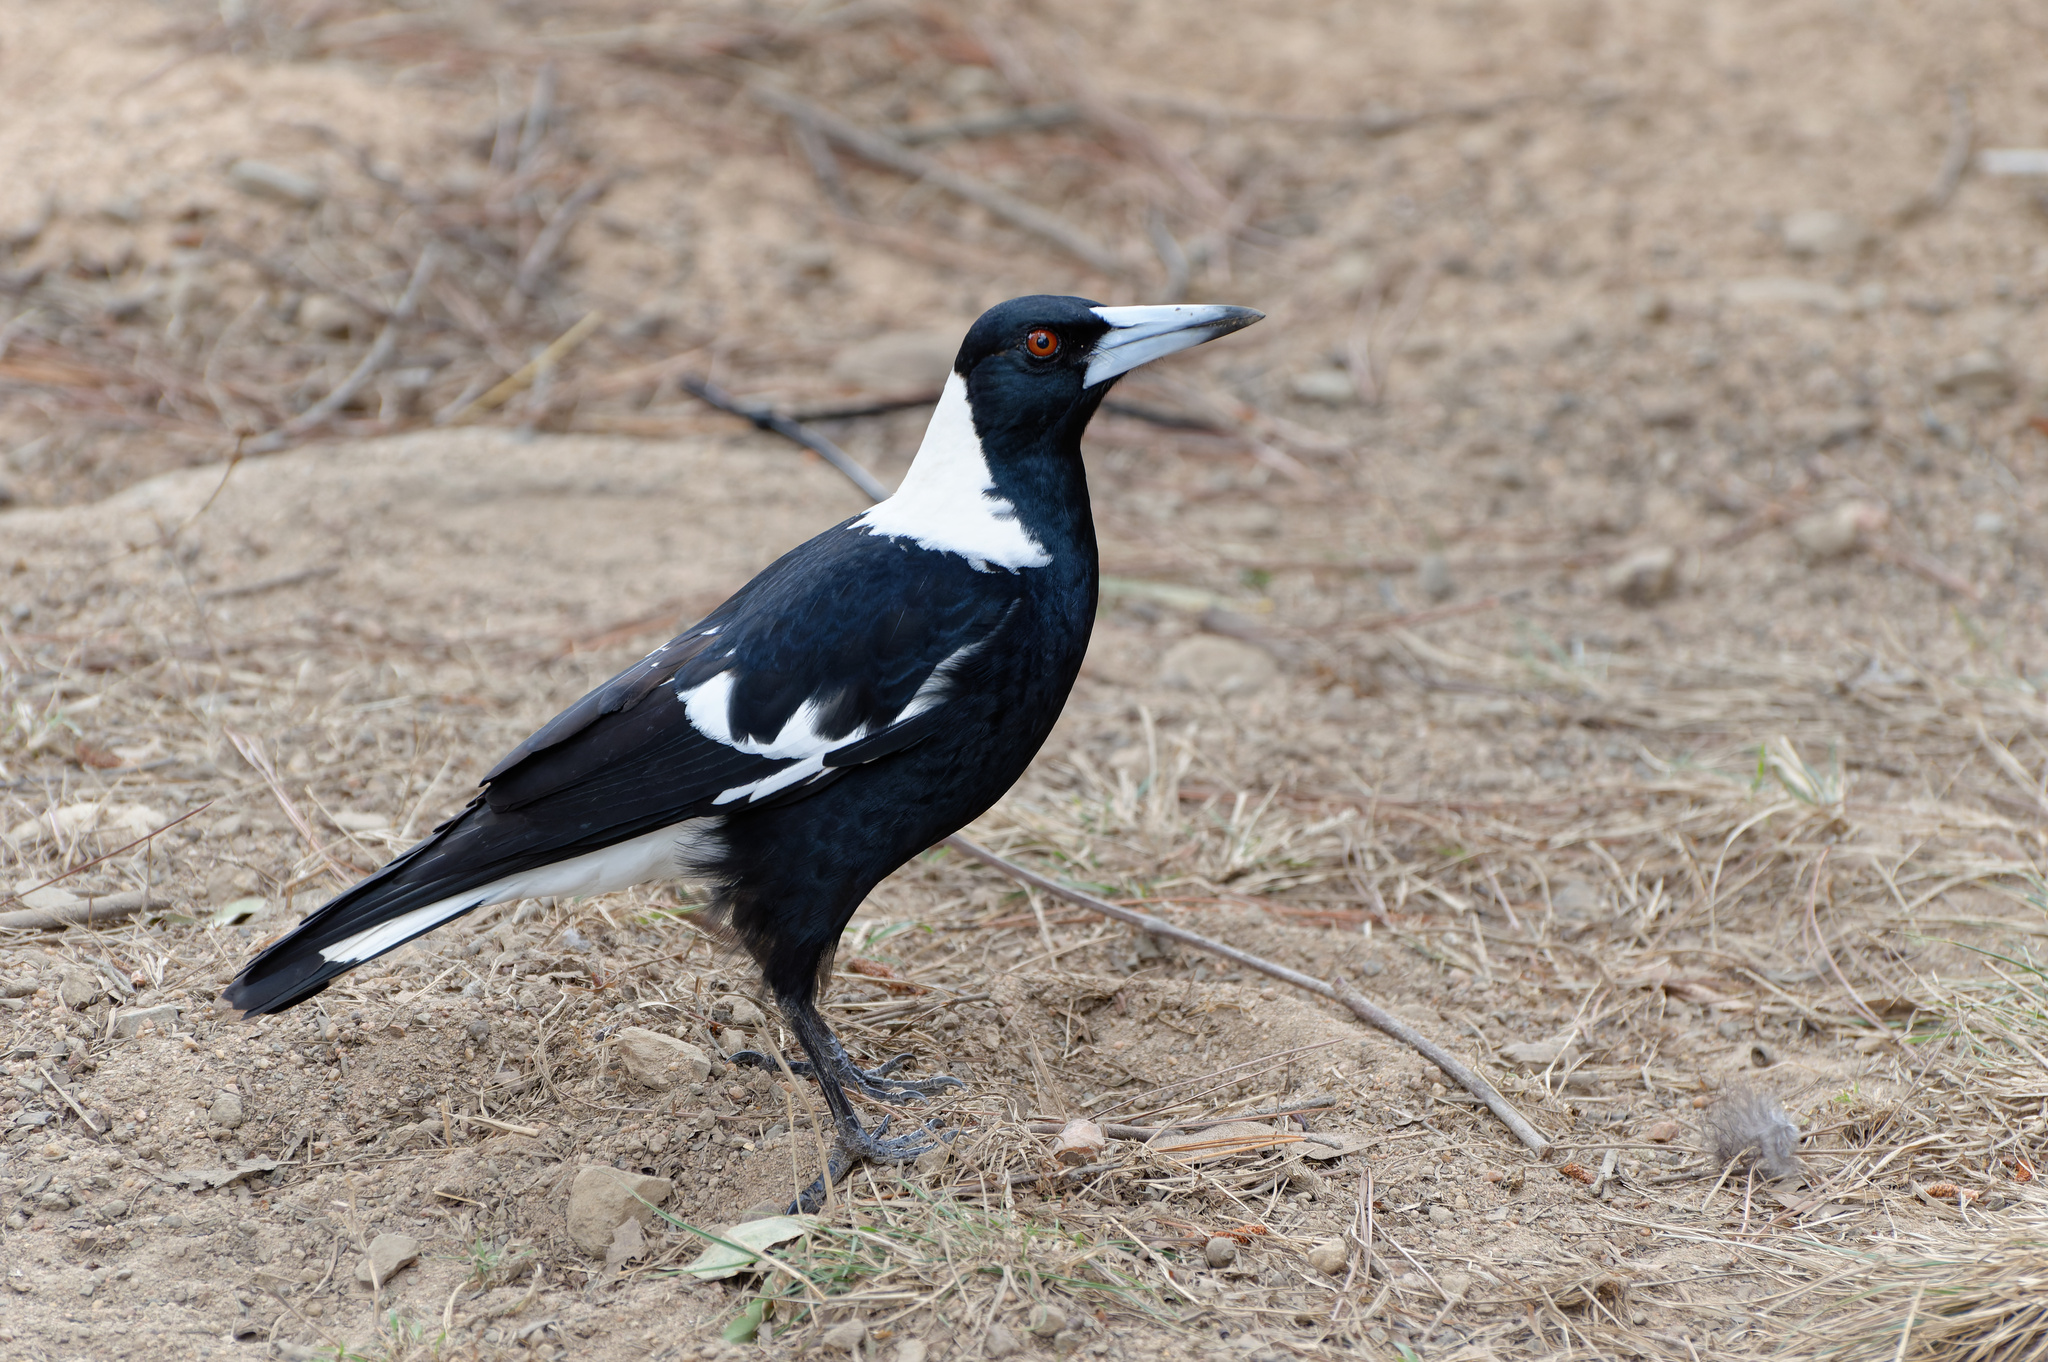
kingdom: Animalia
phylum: Chordata
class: Aves
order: Passeriformes
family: Cracticidae
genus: Gymnorhina
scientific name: Gymnorhina tibicen
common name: Australian magpie
